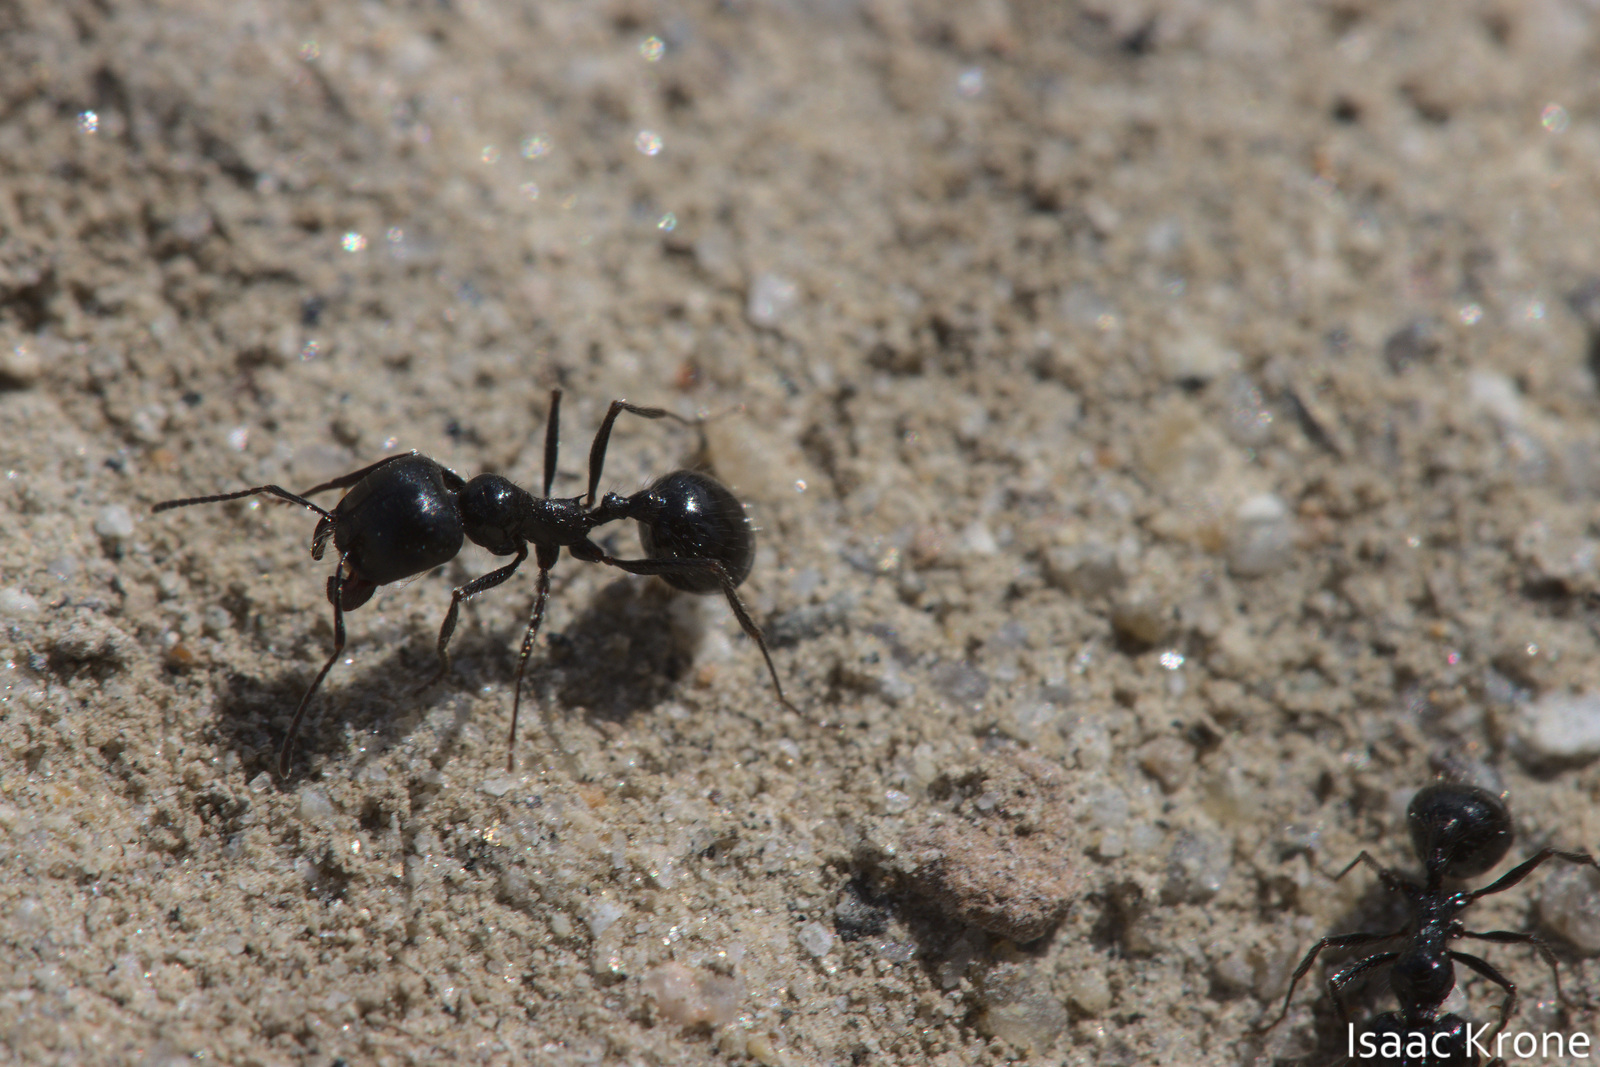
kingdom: Animalia
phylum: Arthropoda
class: Insecta
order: Hymenoptera
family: Formicidae
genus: Messor
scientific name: Messor pergandei
